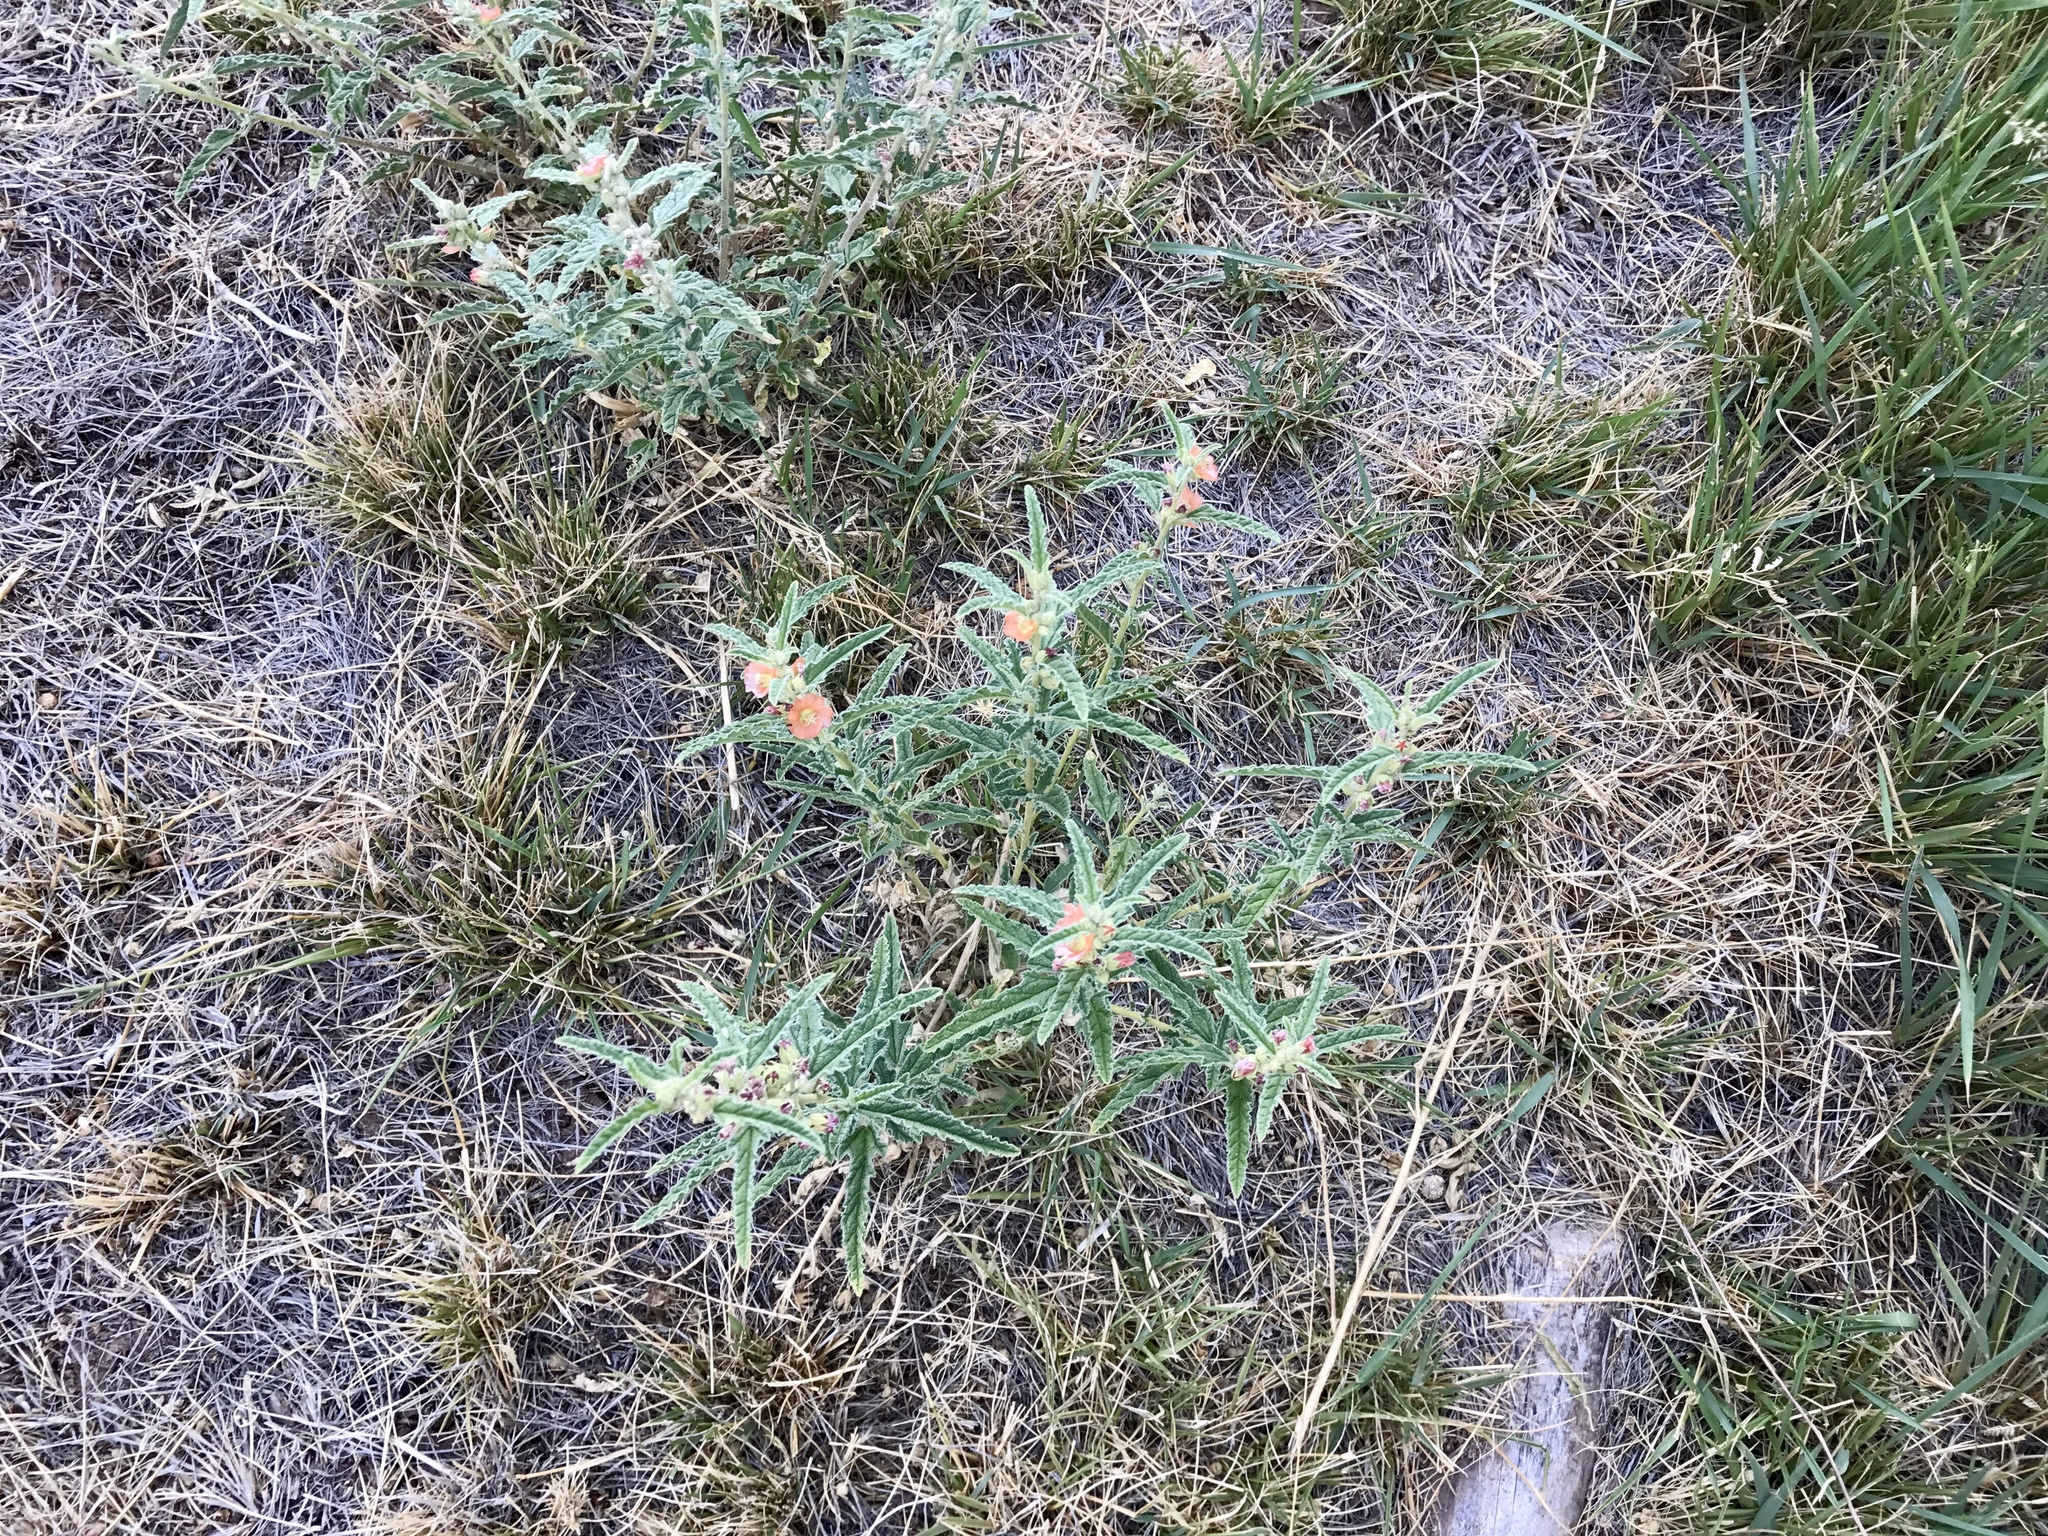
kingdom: Plantae
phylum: Tracheophyta
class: Magnoliopsida
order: Malvales
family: Malvaceae
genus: Sphaeralcea
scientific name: Sphaeralcea angustifolia
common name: Copper globe-mallow
